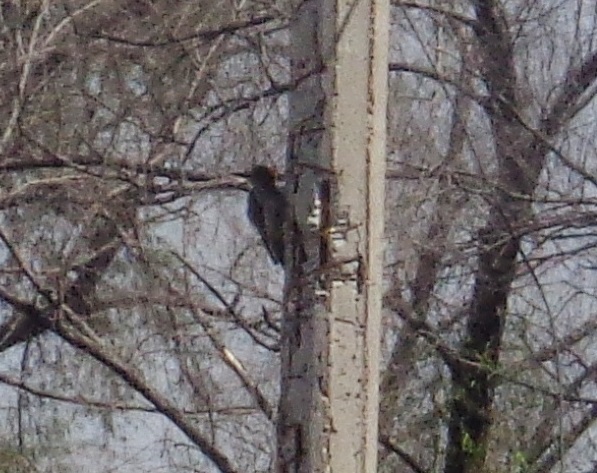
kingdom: Animalia
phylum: Chordata
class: Aves
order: Piciformes
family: Picidae
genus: Melanerpes
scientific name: Melanerpes aurifrons
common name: Golden-fronted woodpecker
